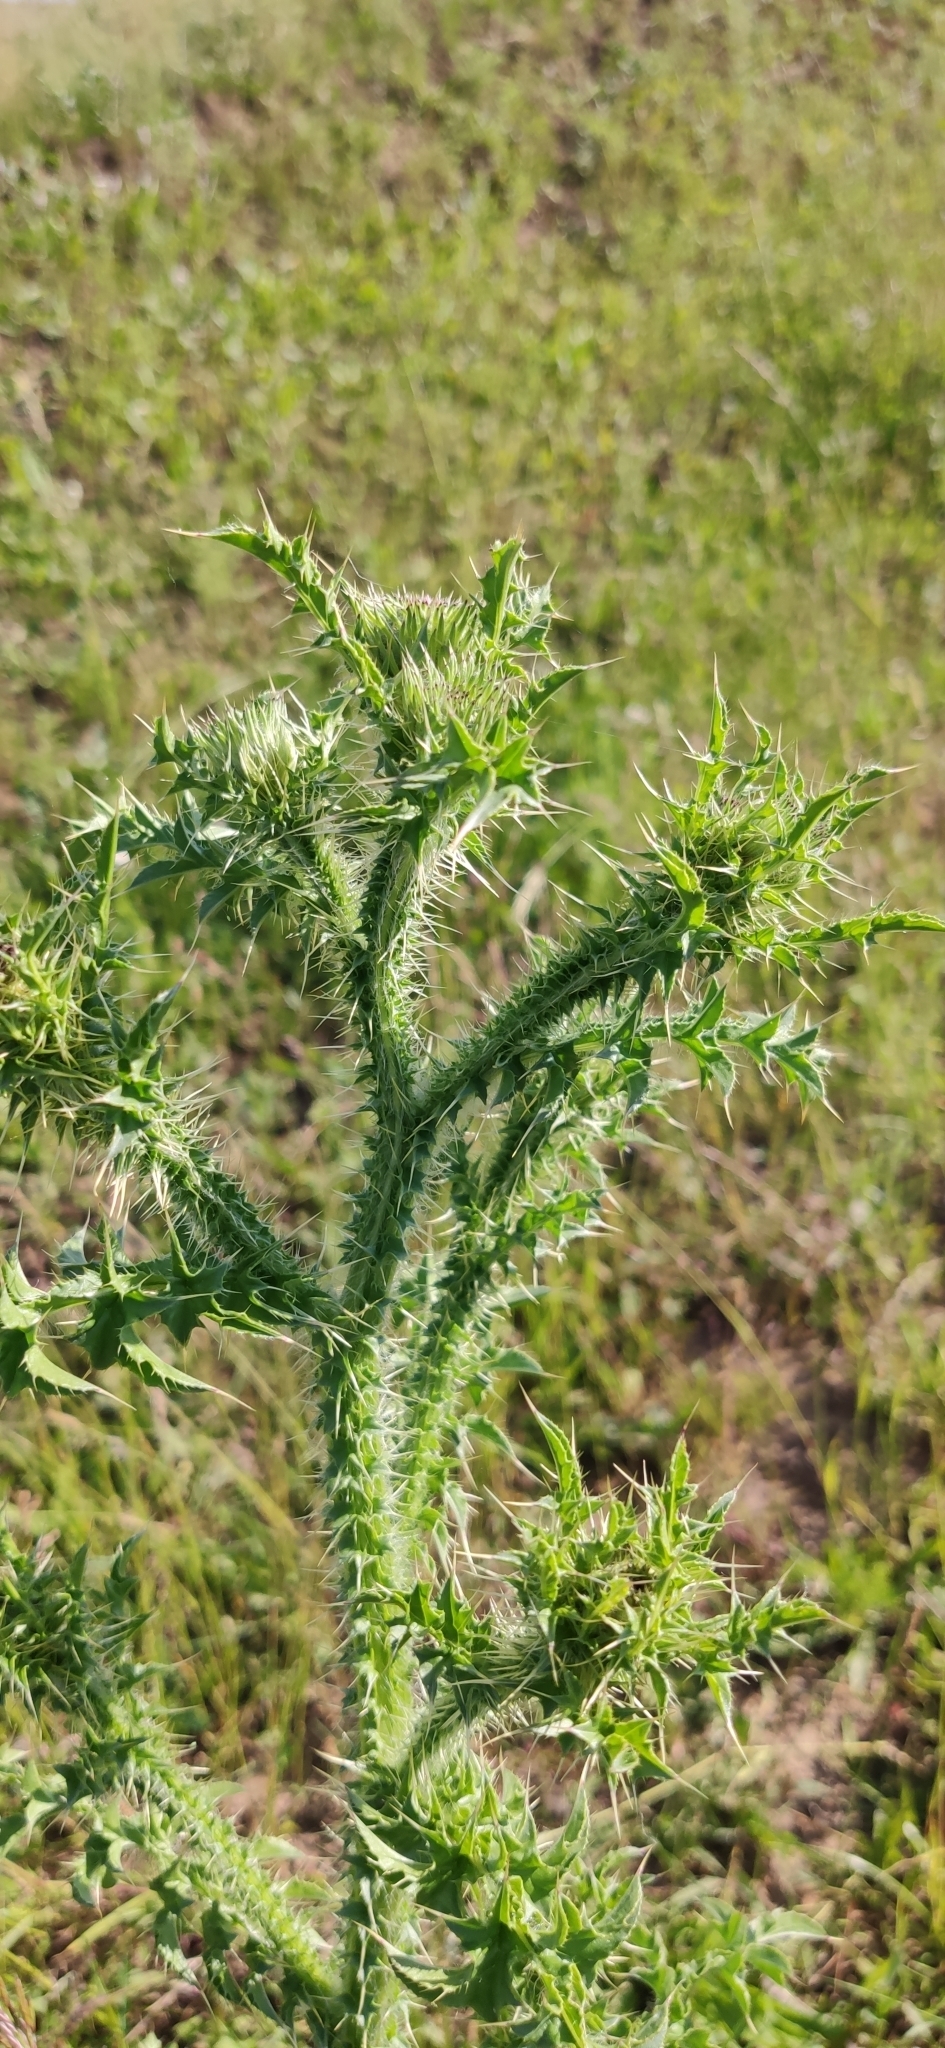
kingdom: Plantae
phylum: Tracheophyta
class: Magnoliopsida
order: Asterales
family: Asteraceae
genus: Carduus
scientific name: Carduus acanthoides
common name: Plumeless thistle
